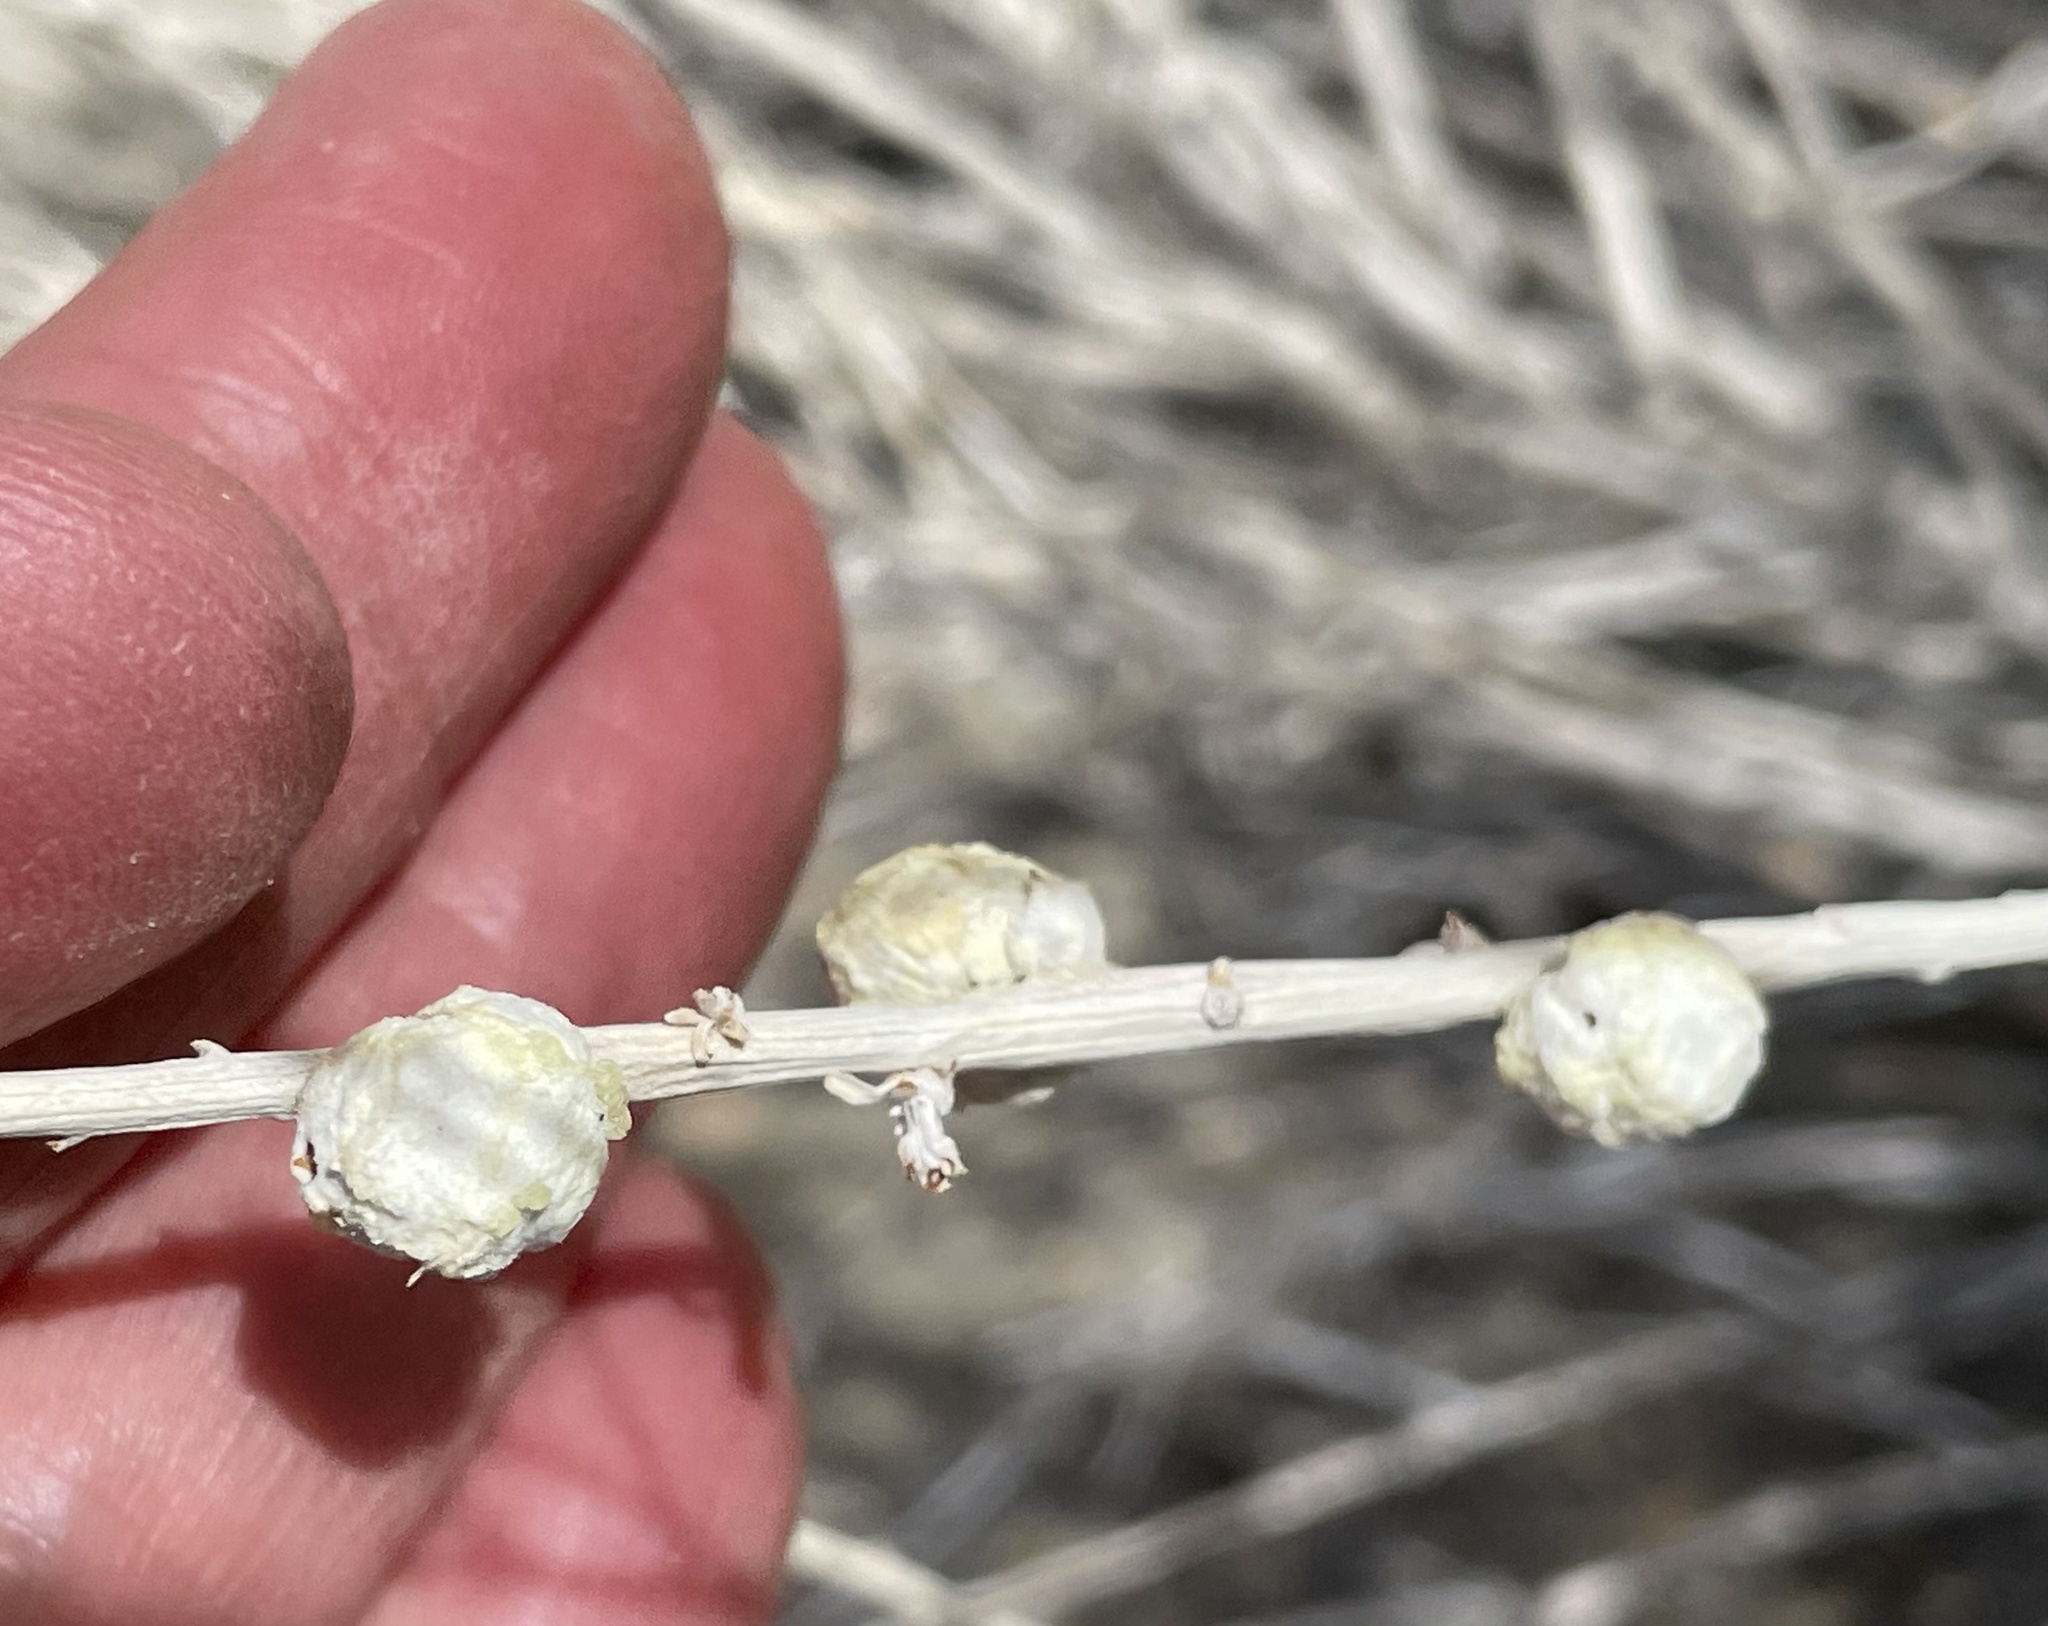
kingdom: Animalia
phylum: Arthropoda
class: Insecta
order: Diptera
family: Tephritidae
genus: Aciurina
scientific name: Aciurina trixa
